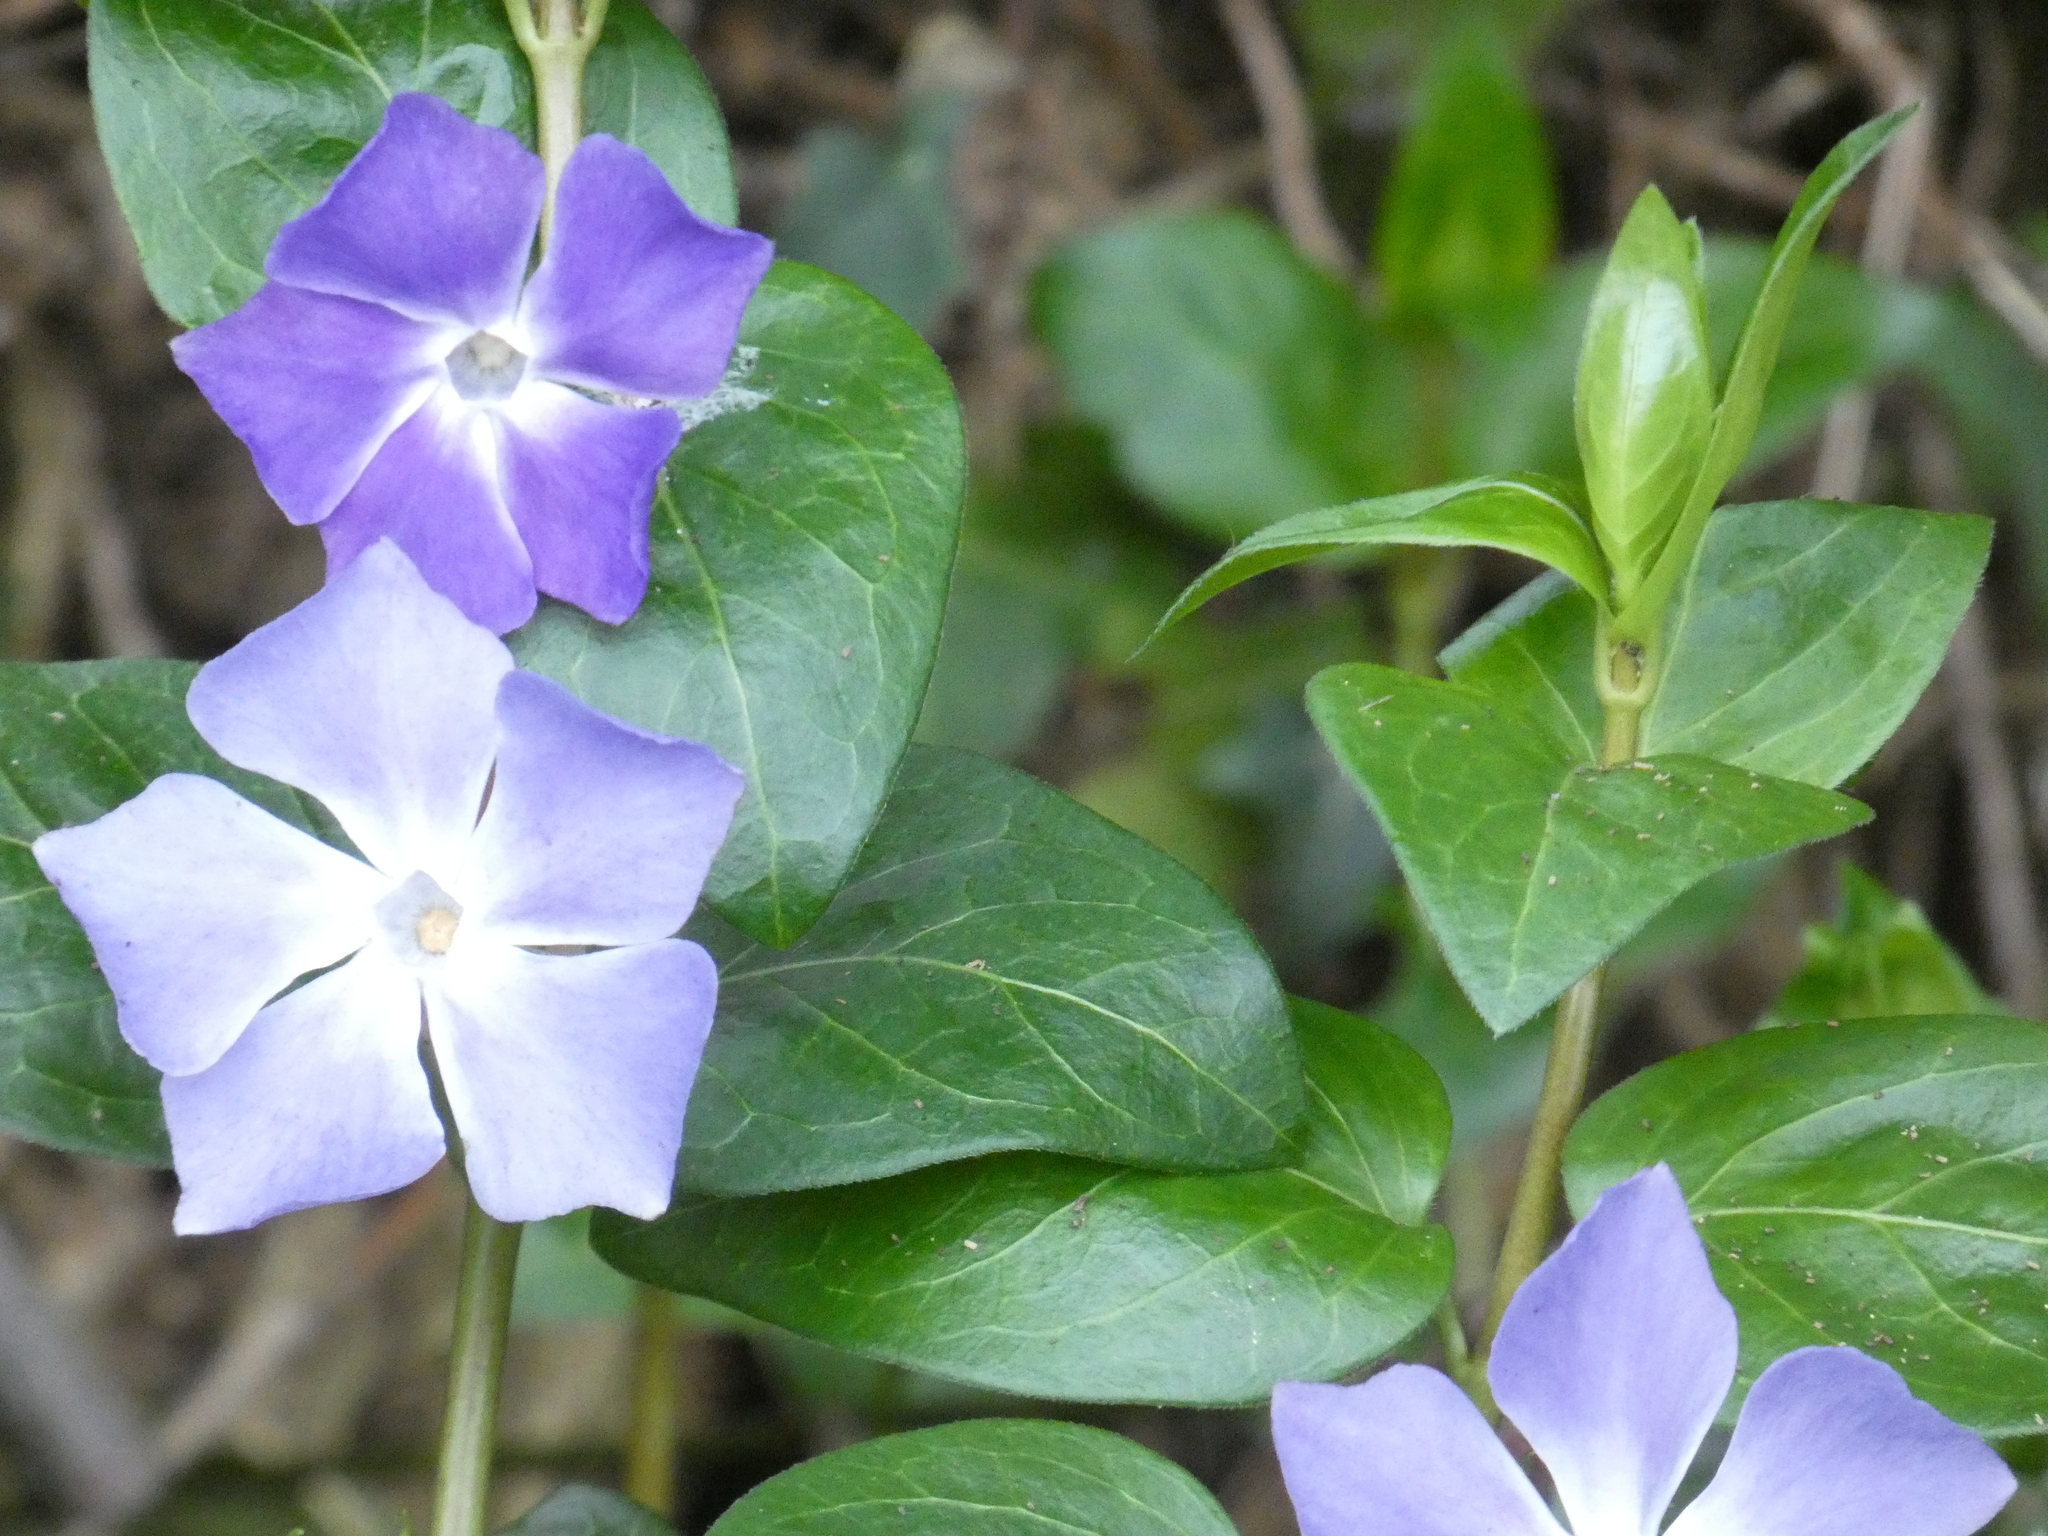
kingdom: Plantae
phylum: Tracheophyta
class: Magnoliopsida
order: Gentianales
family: Apocynaceae
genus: Vinca
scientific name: Vinca major
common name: Greater periwinkle
